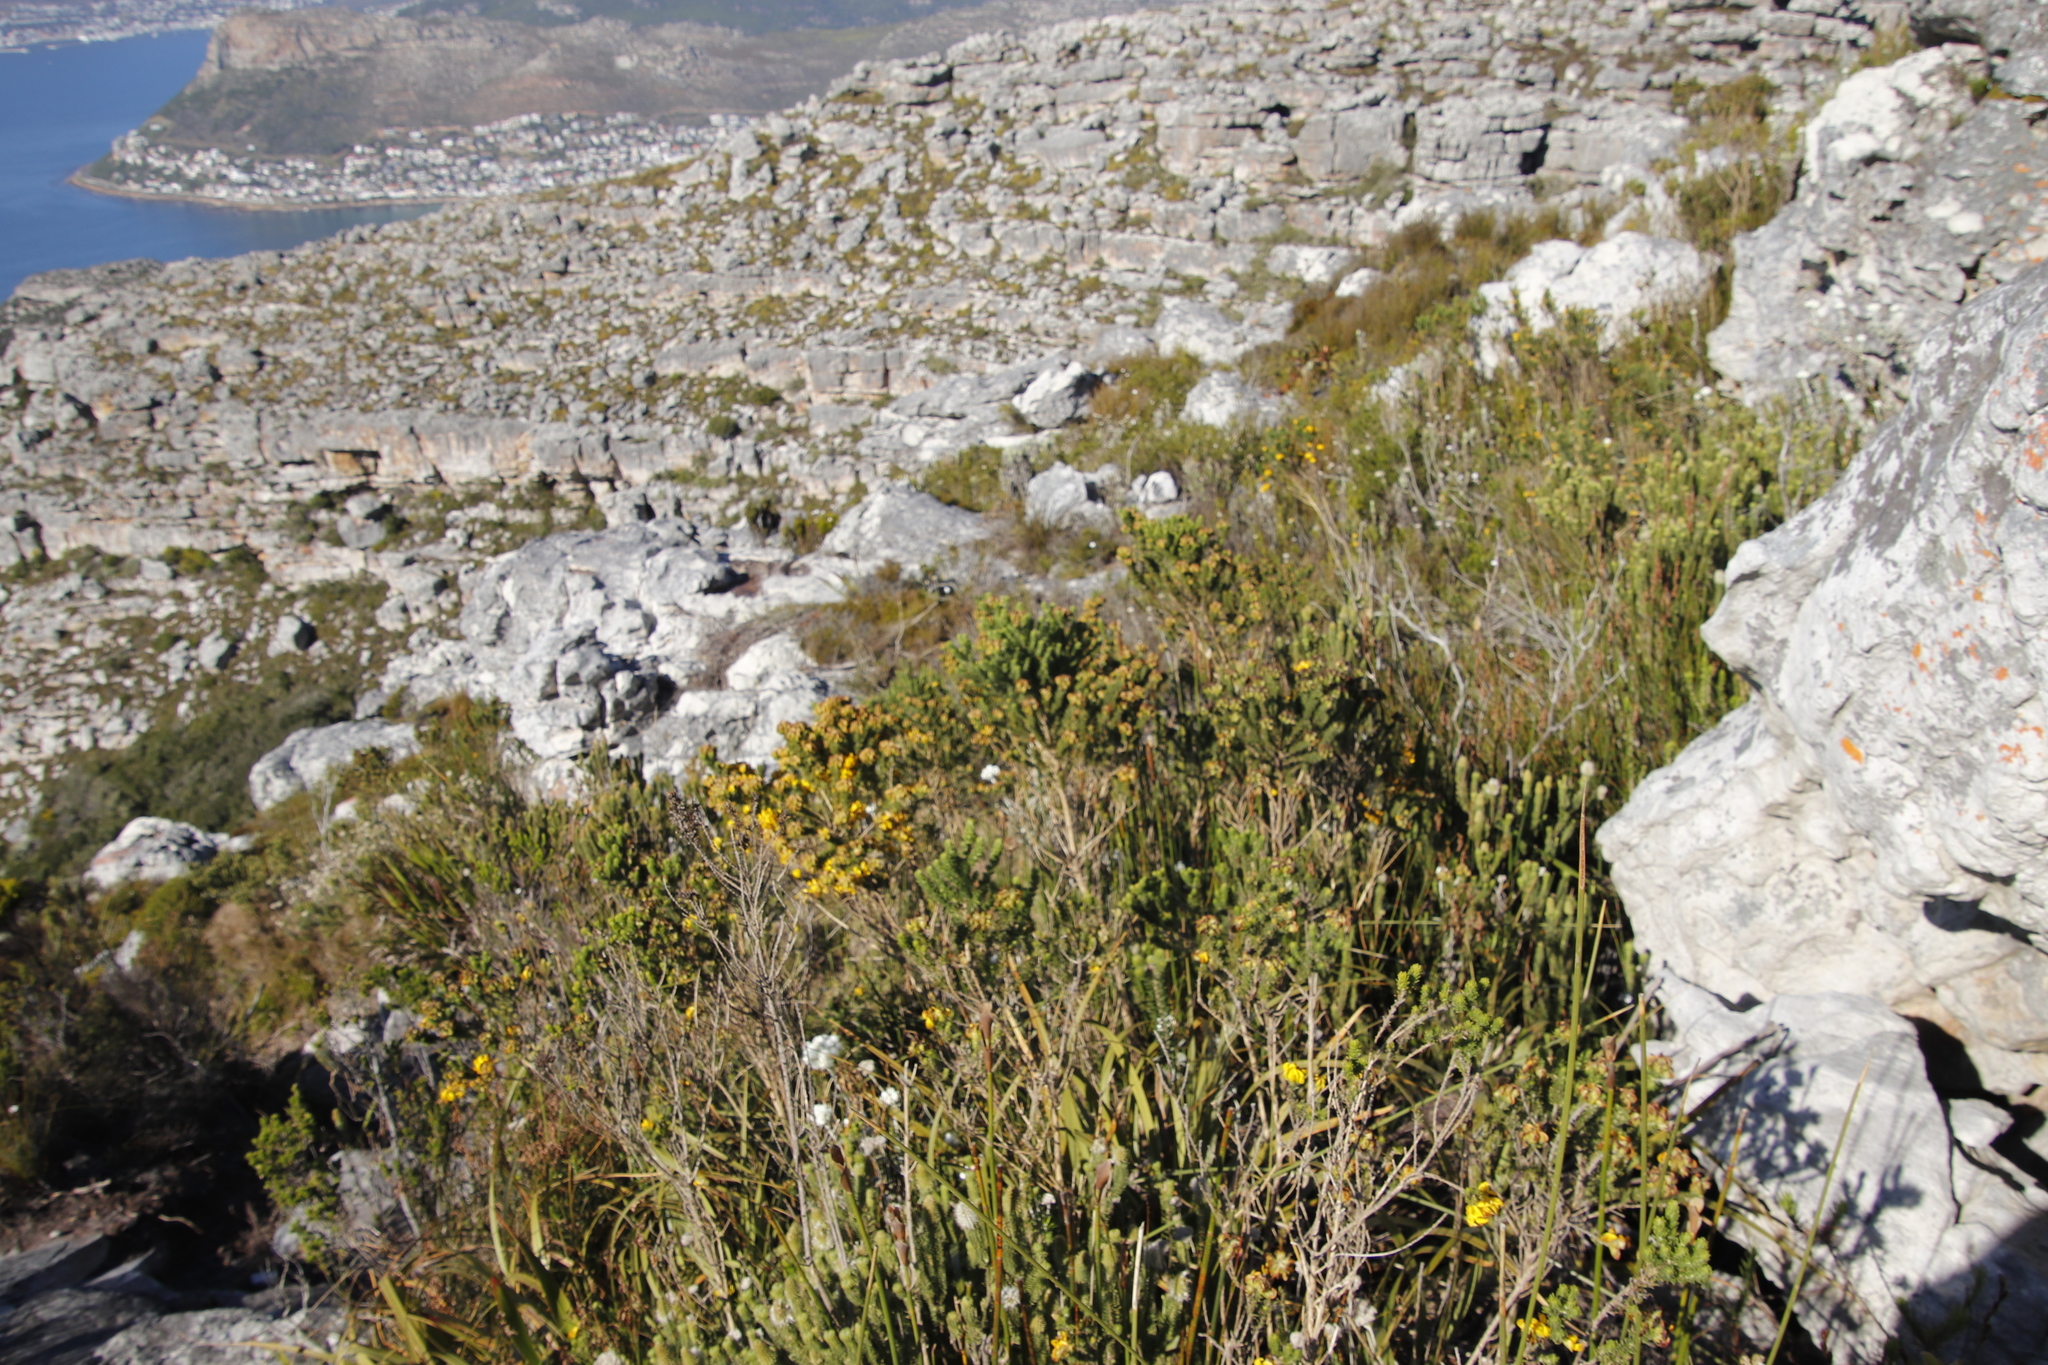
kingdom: Plantae
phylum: Tracheophyta
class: Magnoliopsida
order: Fabales
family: Fabaceae
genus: Aspalathus
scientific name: Aspalathus capitata
